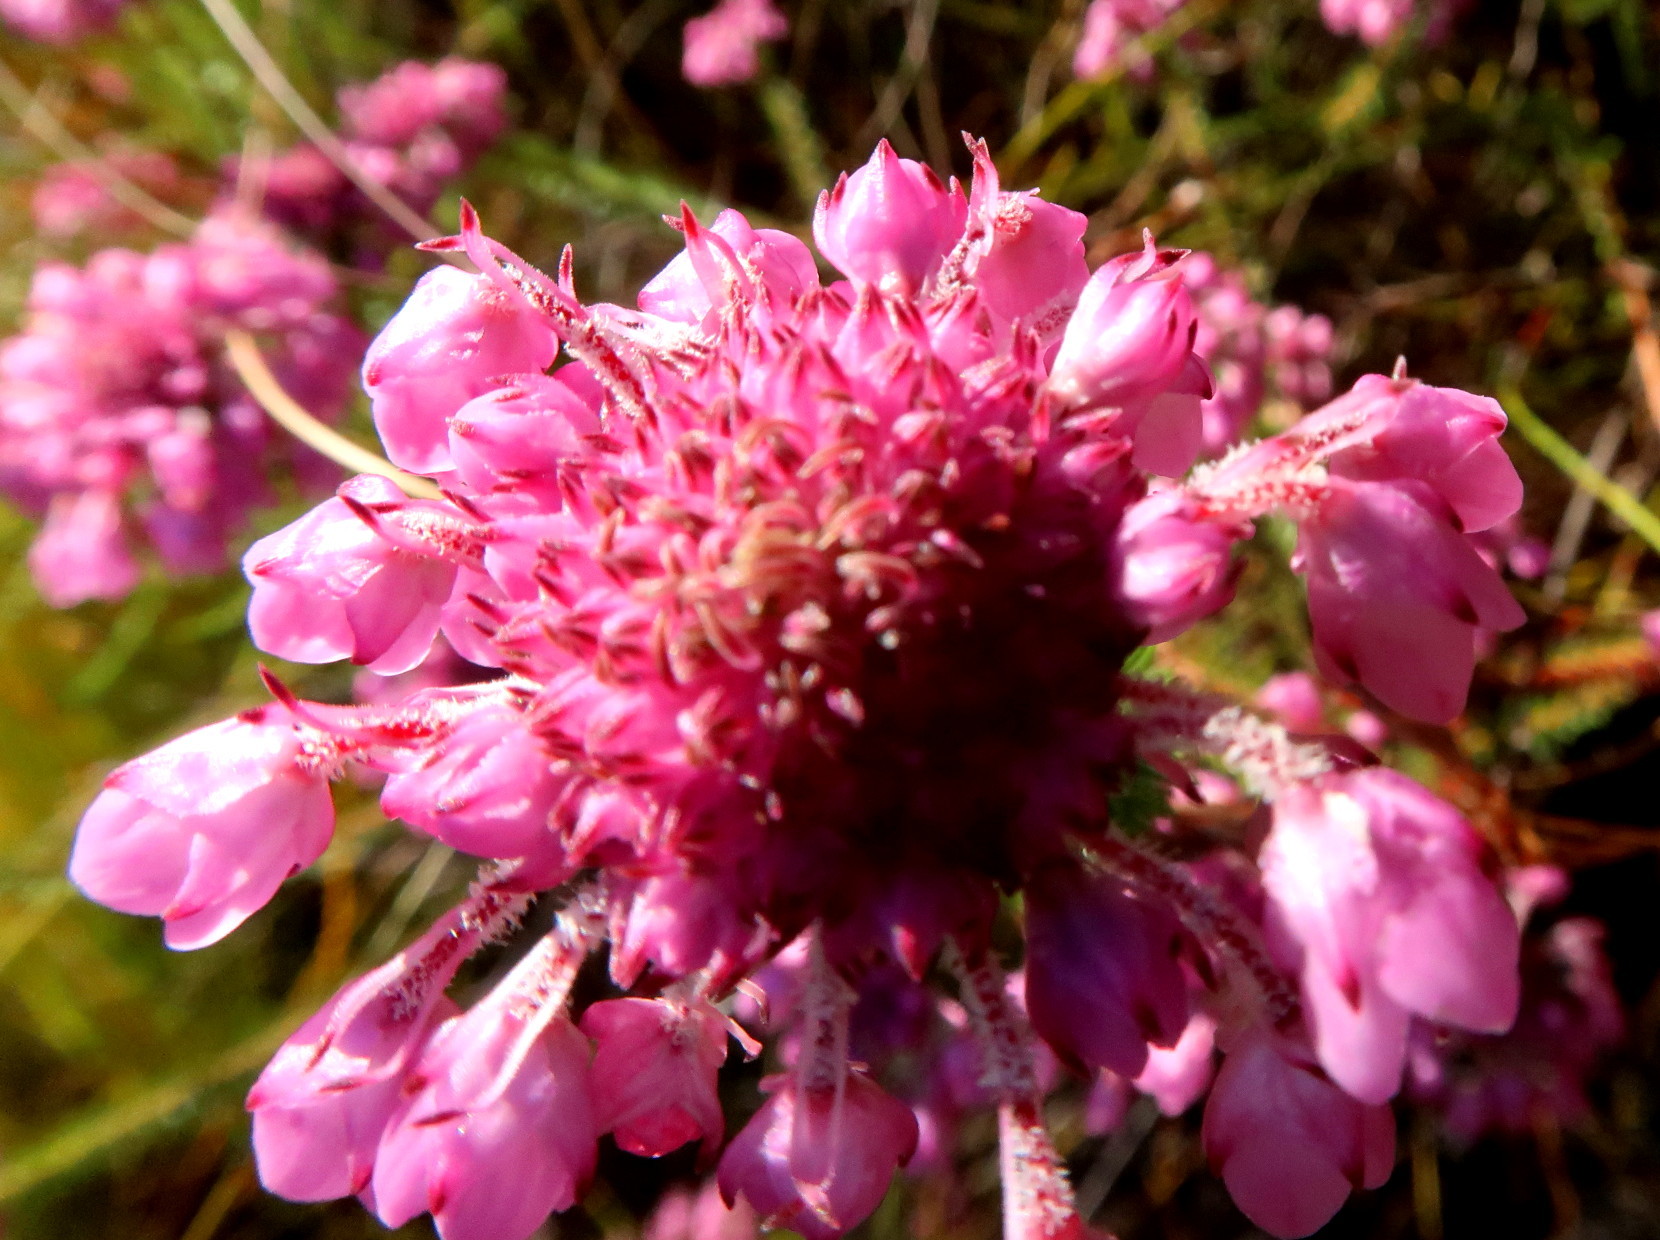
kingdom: Plantae
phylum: Tracheophyta
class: Magnoliopsida
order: Ericales
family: Ericaceae
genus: Erica
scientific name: Erica cubica
